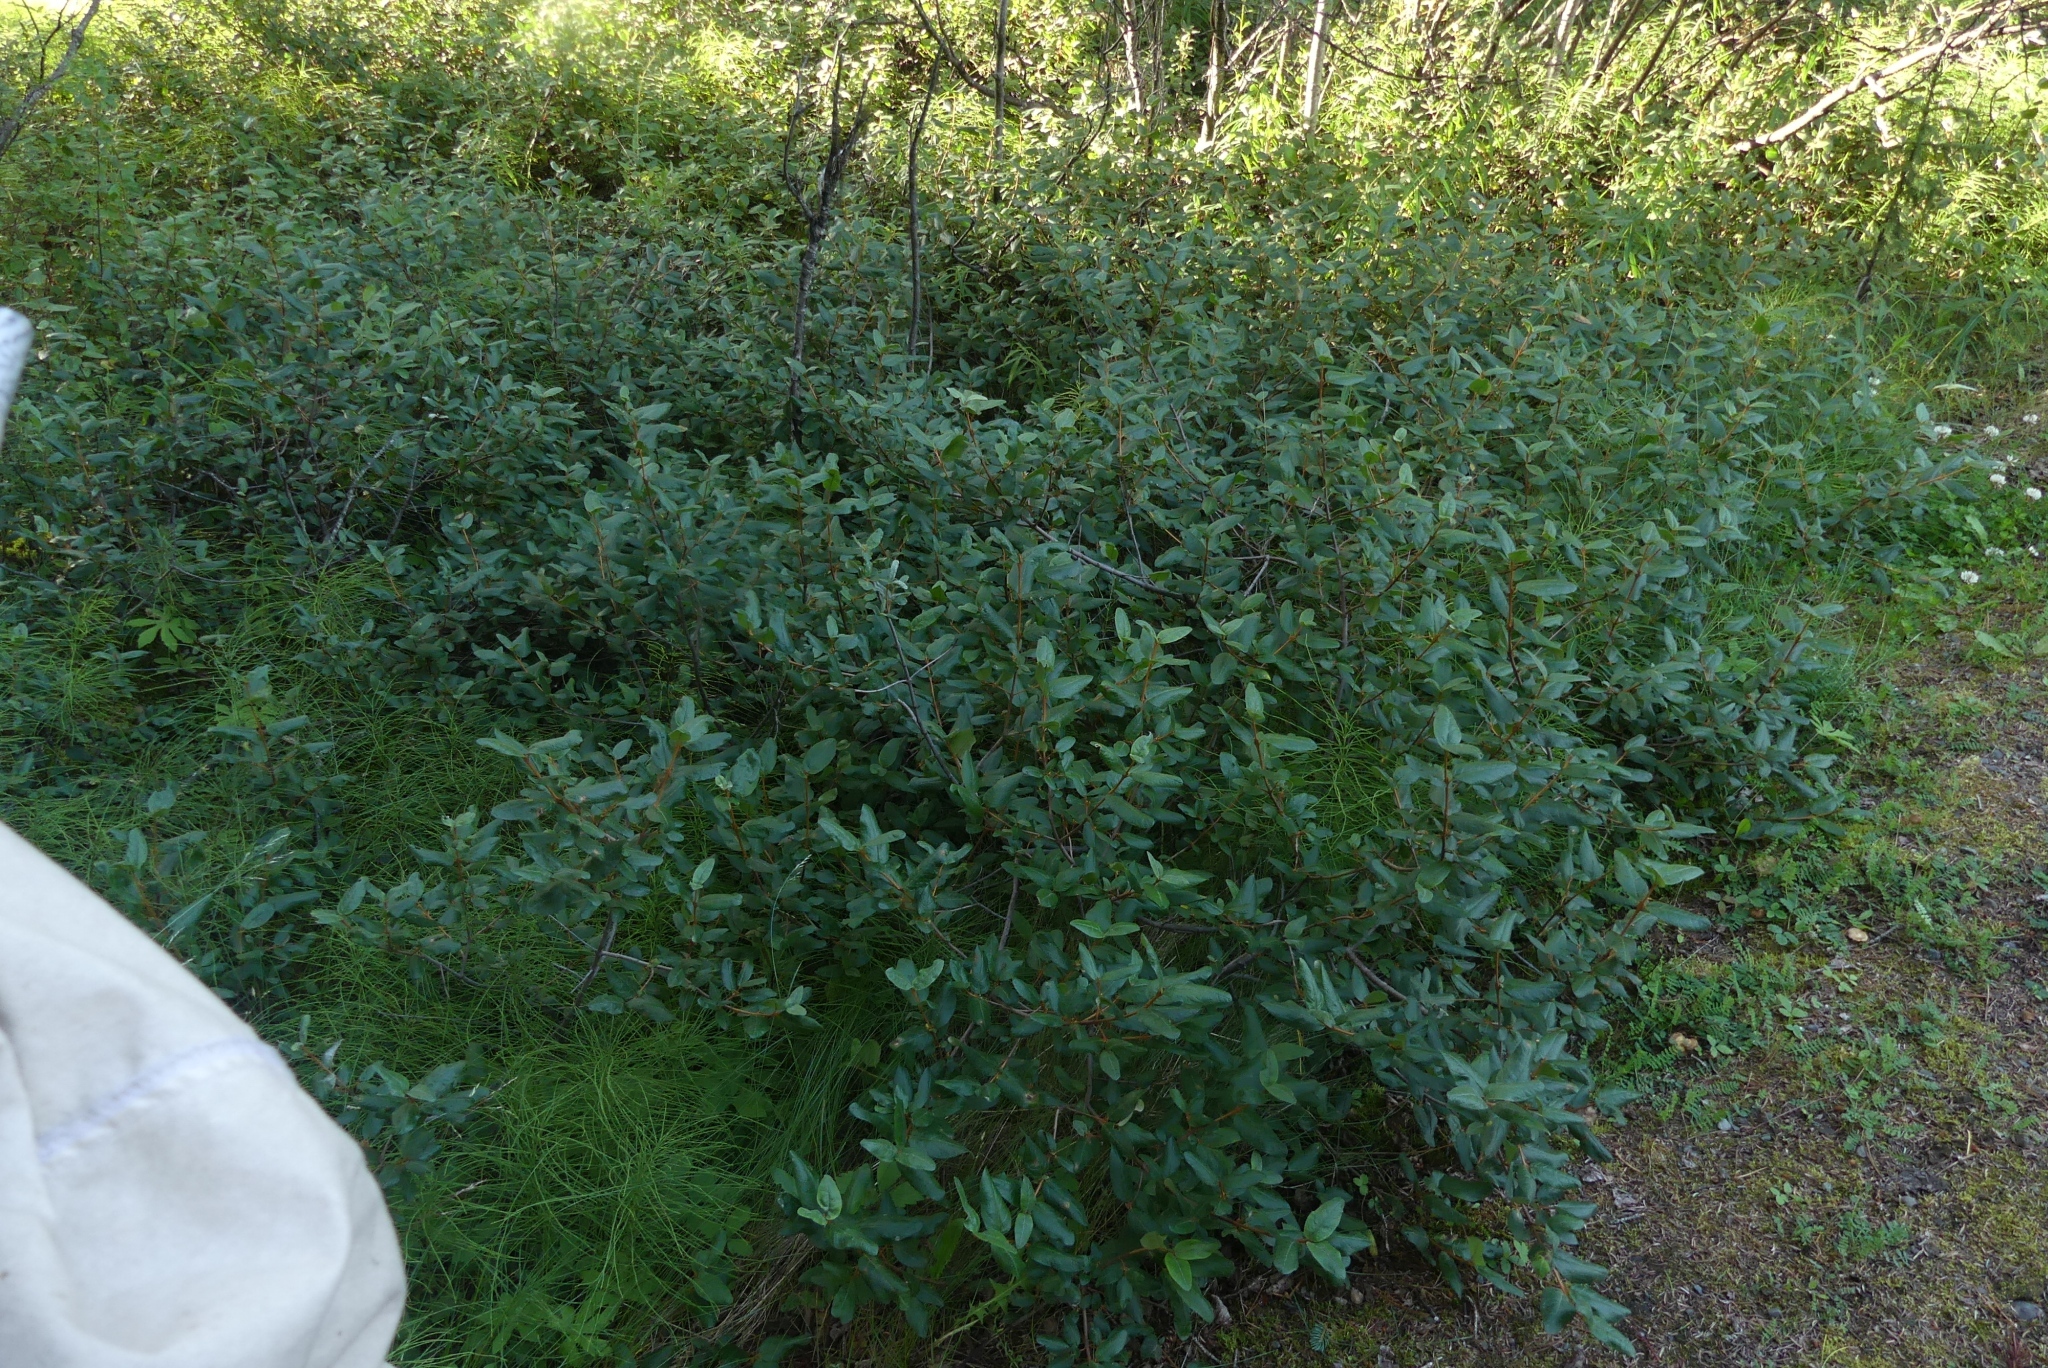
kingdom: Plantae
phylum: Tracheophyta
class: Magnoliopsida
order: Rosales
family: Elaeagnaceae
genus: Shepherdia
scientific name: Shepherdia canadensis
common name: Soapberry
